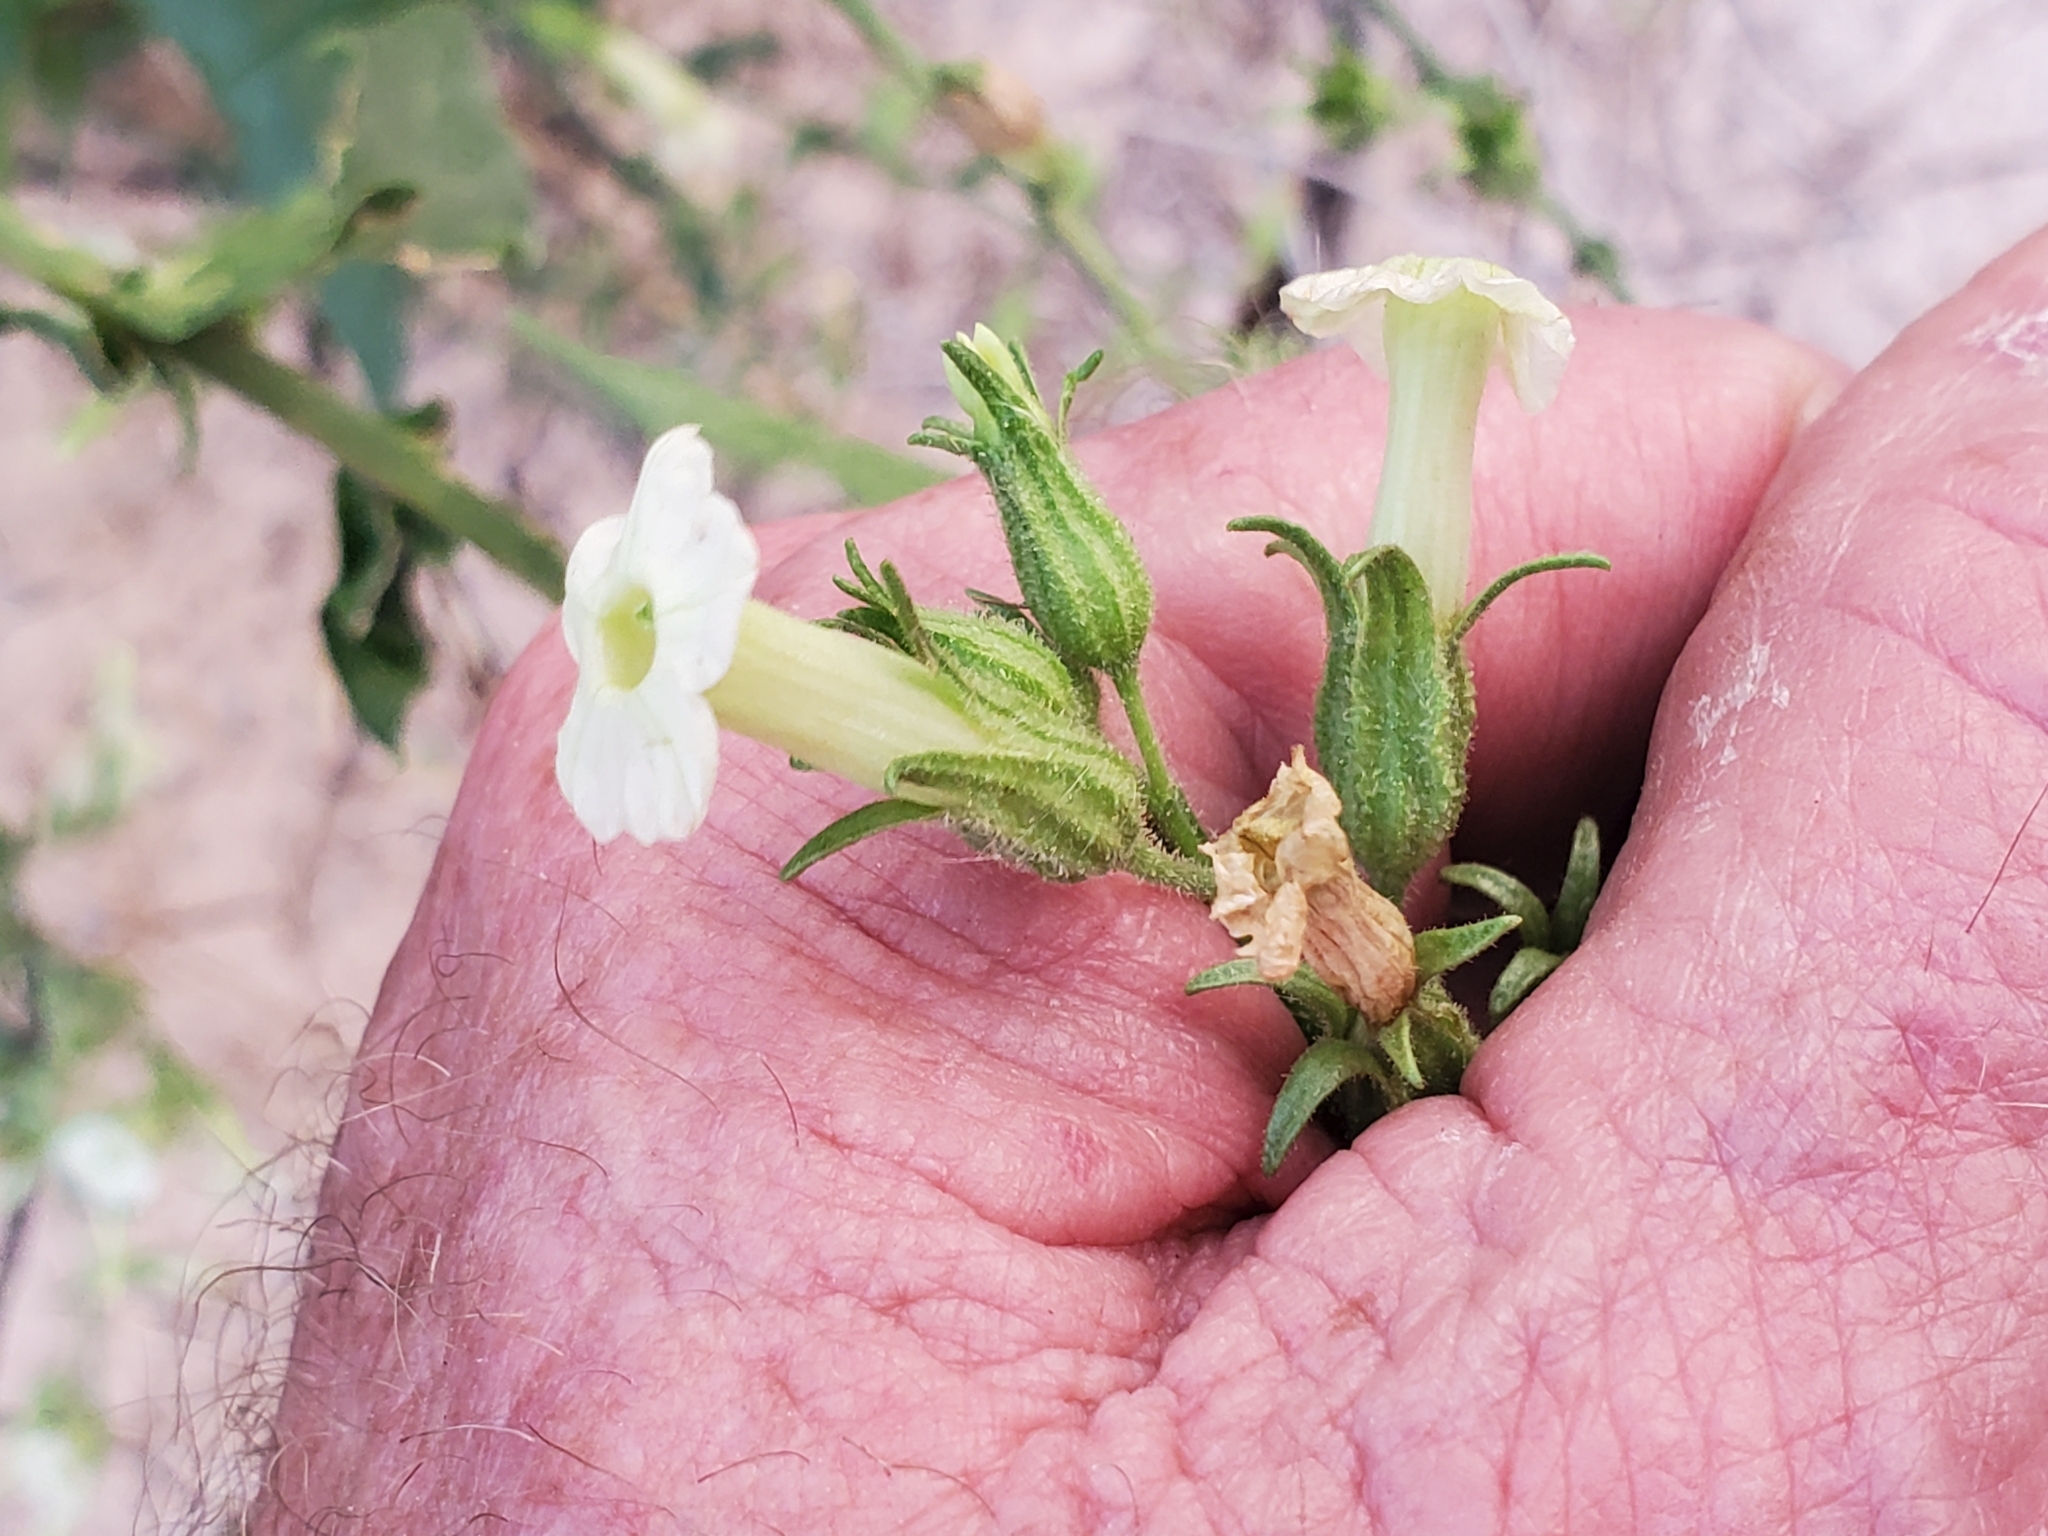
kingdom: Plantae
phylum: Tracheophyta
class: Magnoliopsida
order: Solanales
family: Solanaceae
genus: Nicotiana
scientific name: Nicotiana obtusifolia
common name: Desert tobacco
